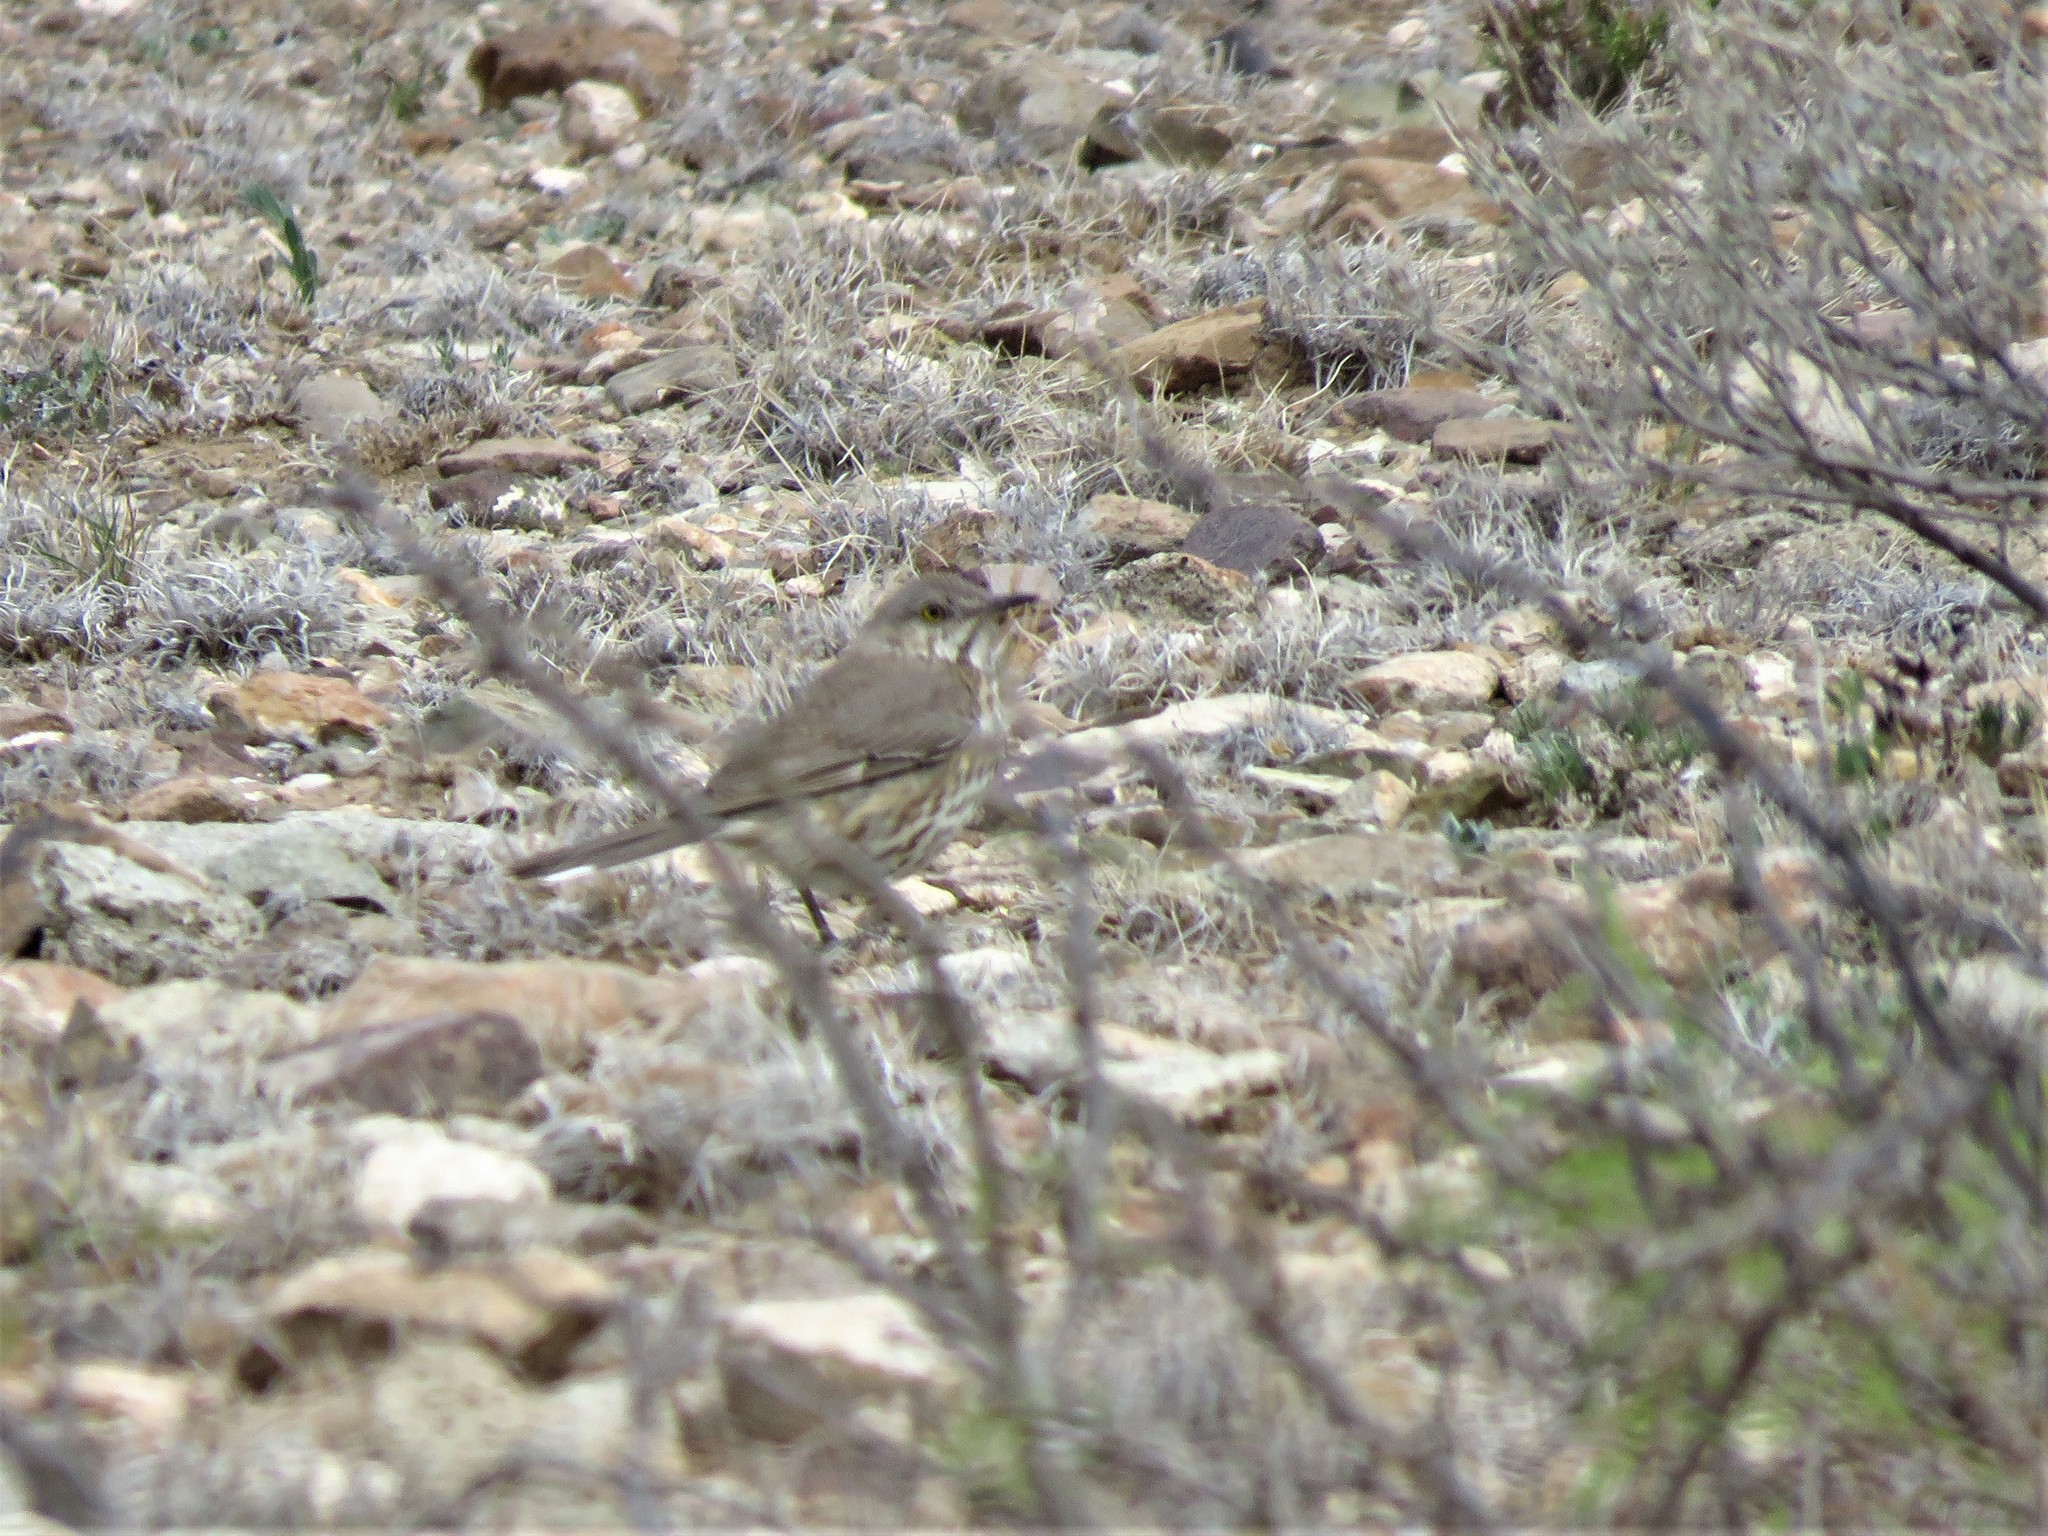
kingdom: Animalia
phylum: Chordata
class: Aves
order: Passeriformes
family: Mimidae
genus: Oreoscoptes
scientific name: Oreoscoptes montanus
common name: Sage thrasher
